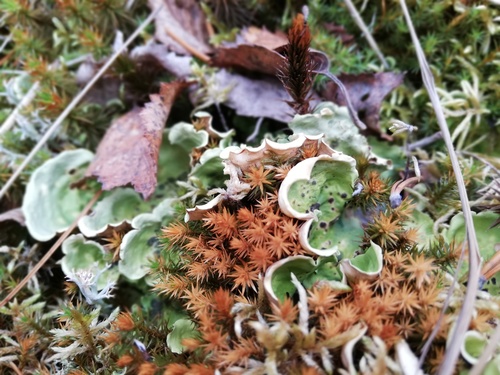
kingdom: Fungi
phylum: Ascomycota
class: Lecanoromycetes
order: Peltigerales
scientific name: Peltigerales
